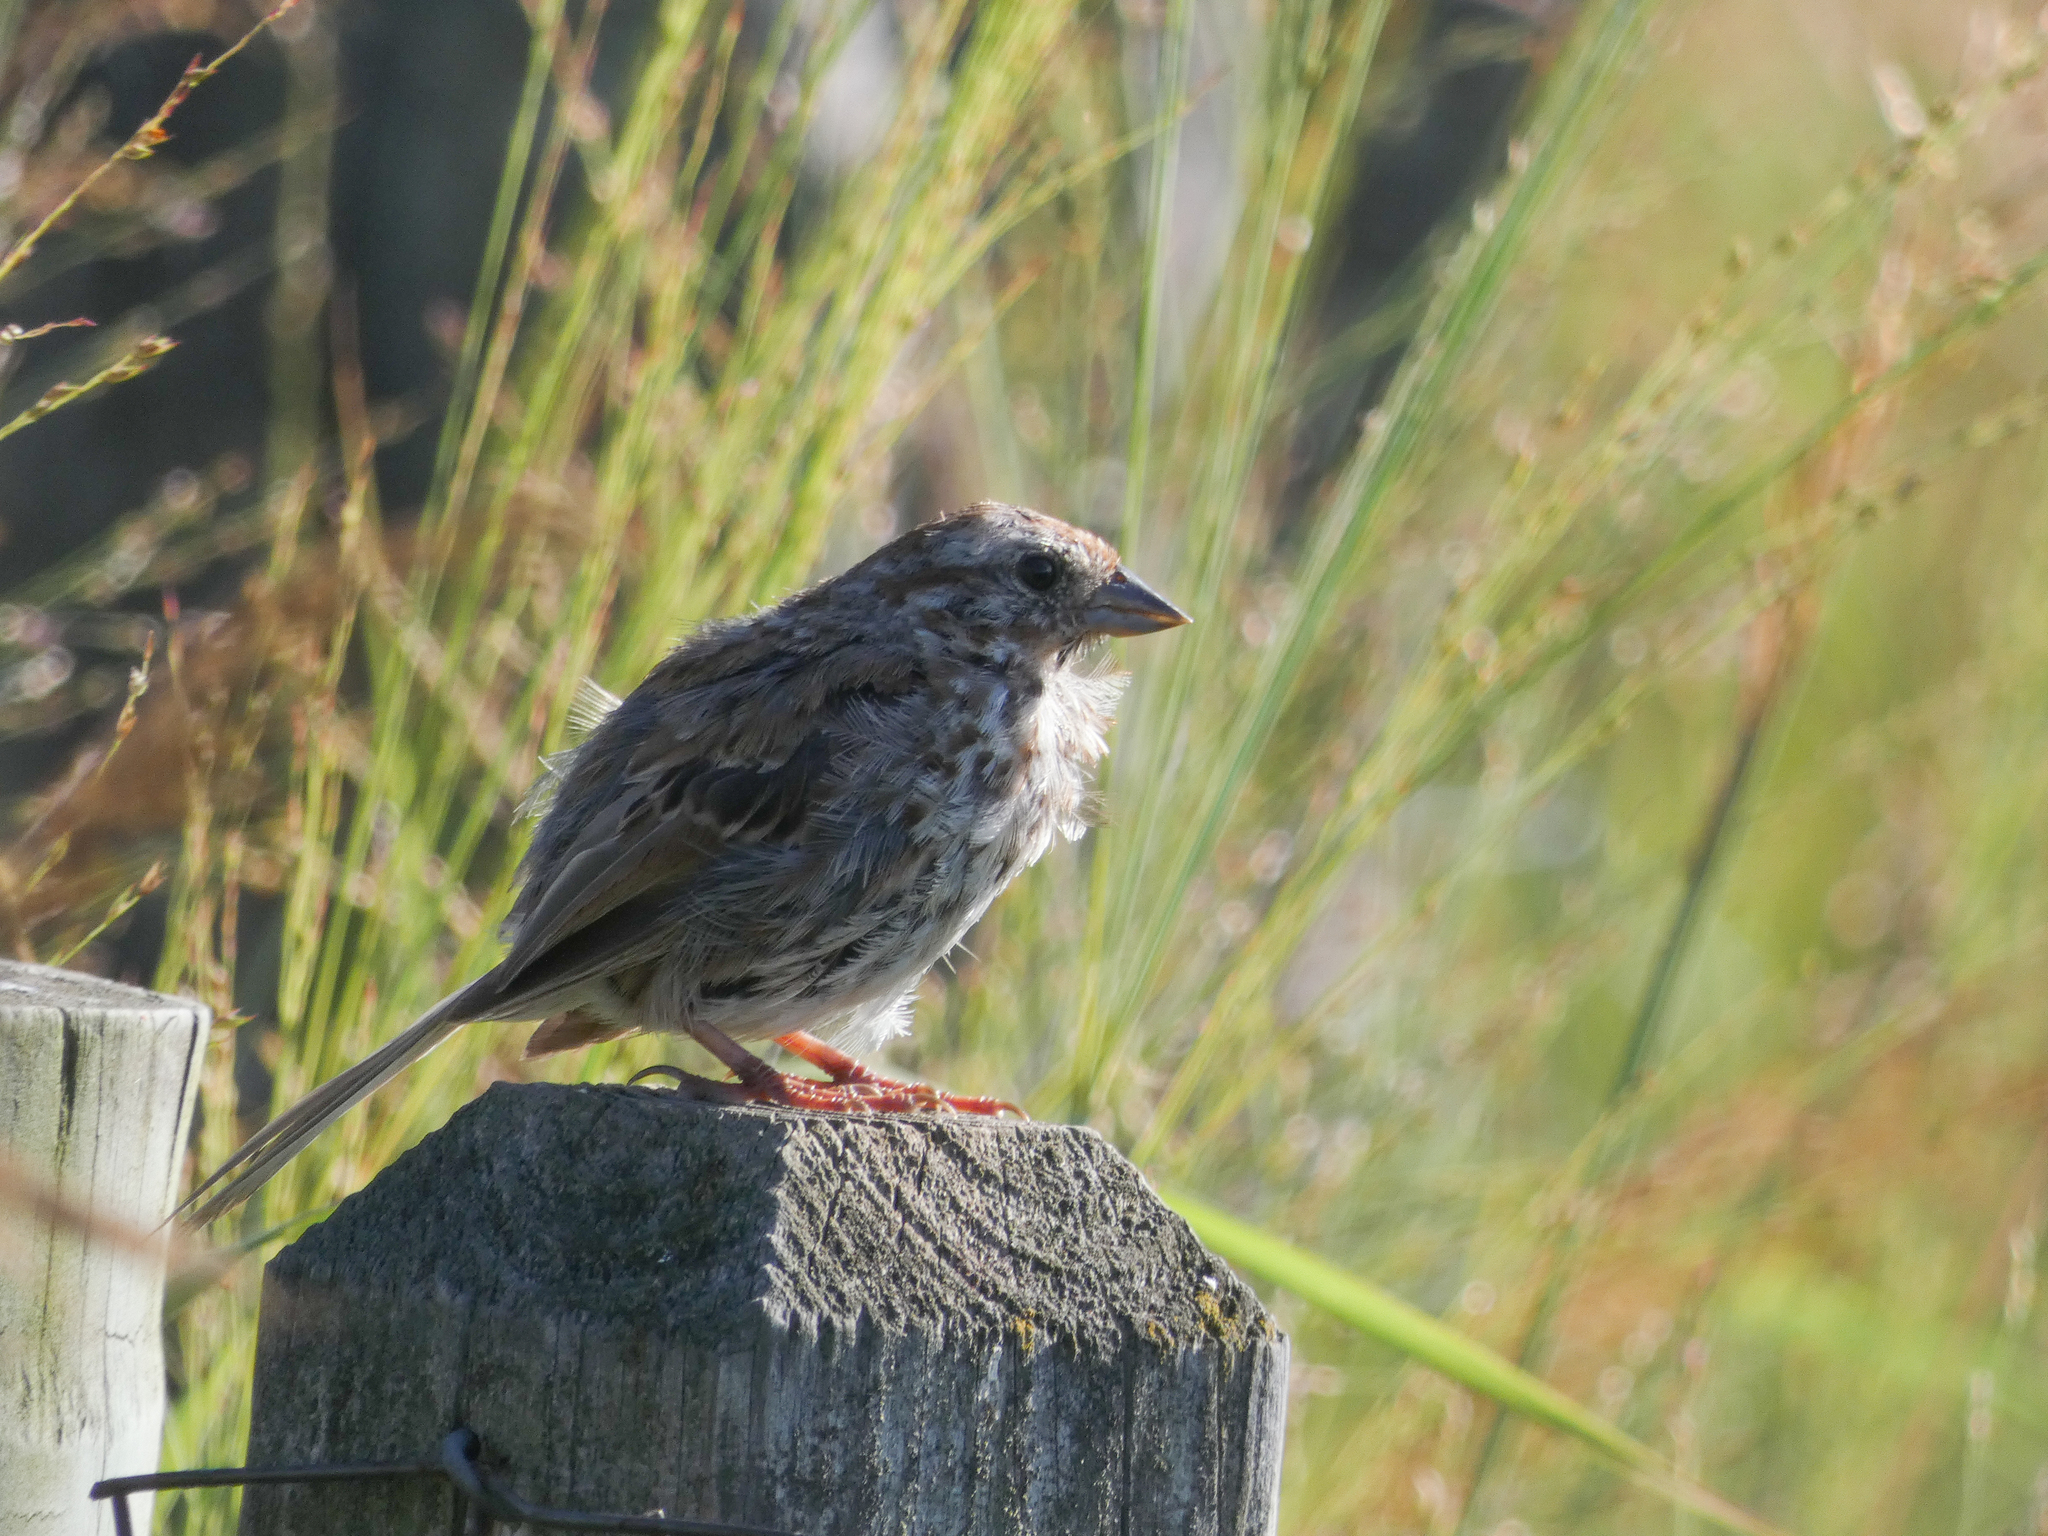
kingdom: Animalia
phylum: Chordata
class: Aves
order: Passeriformes
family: Passerellidae
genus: Melospiza
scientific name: Melospiza melodia
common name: Song sparrow
